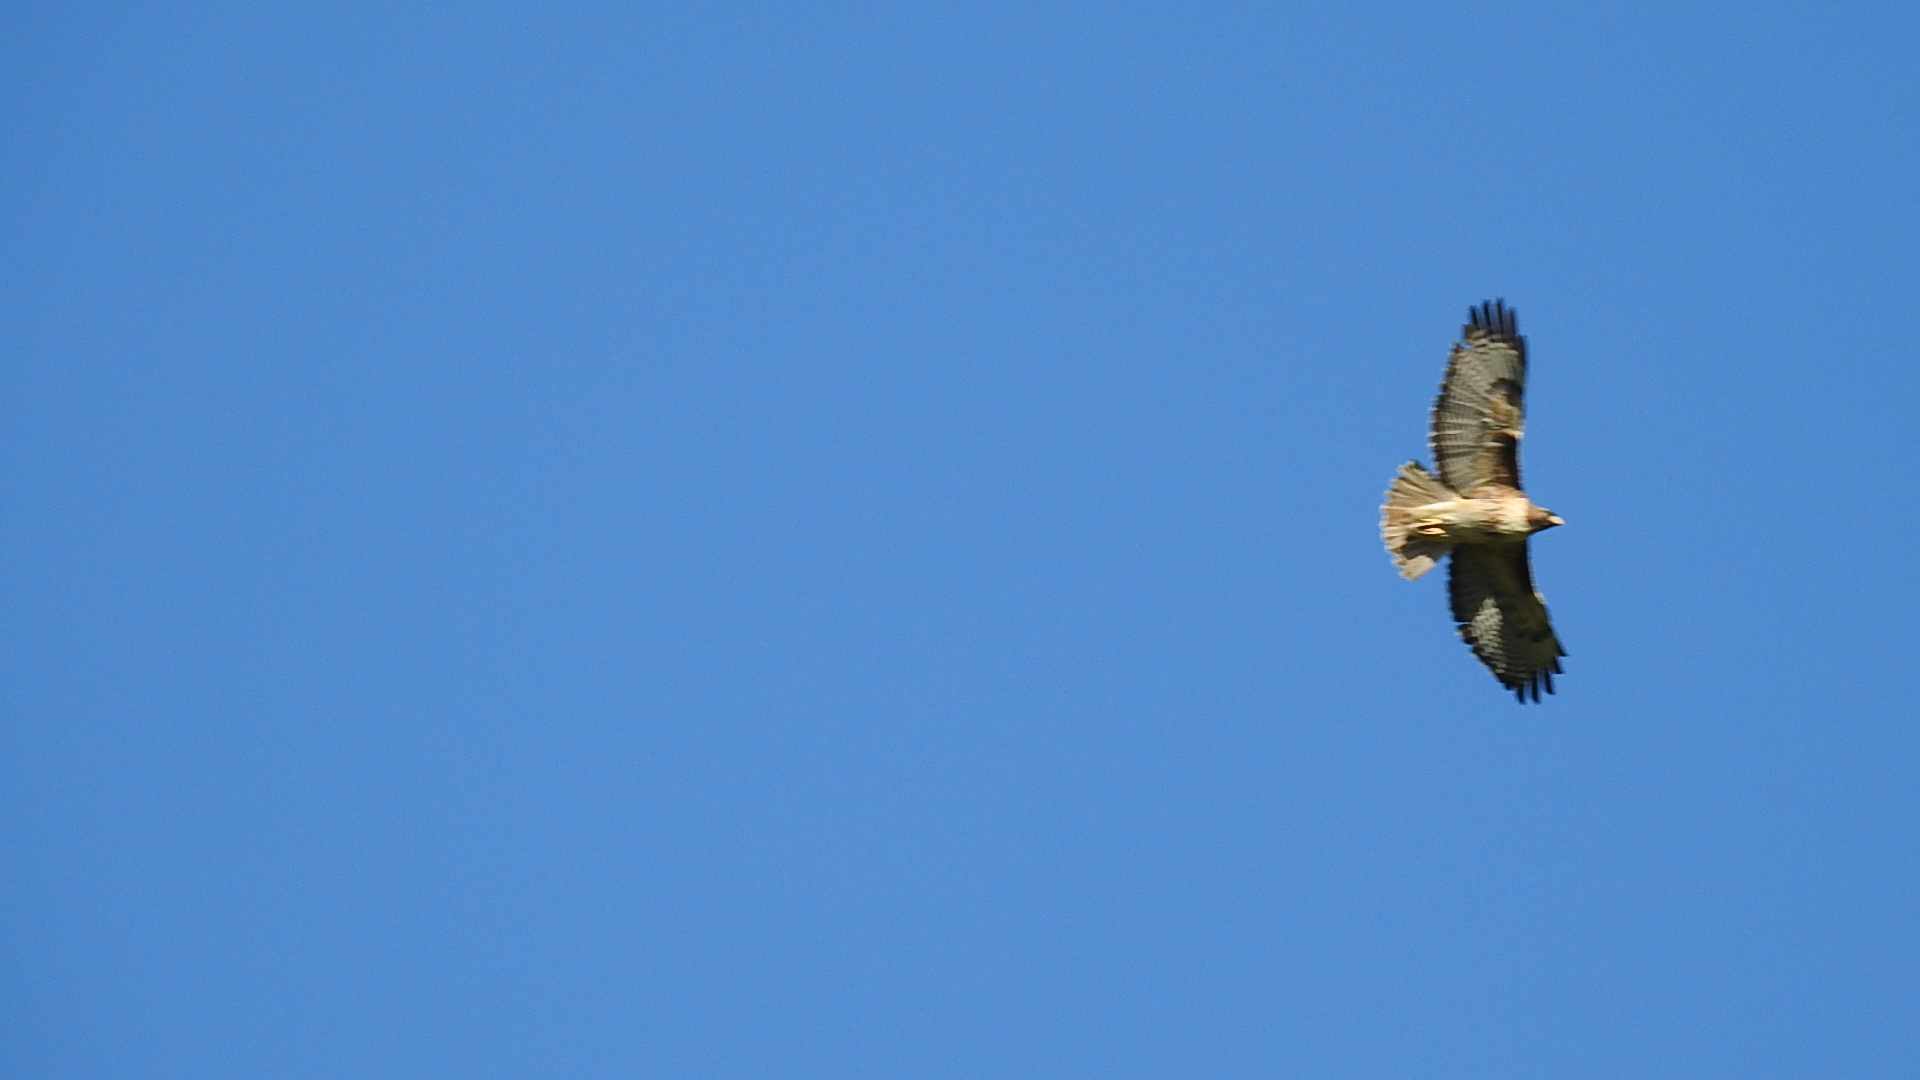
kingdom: Animalia
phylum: Chordata
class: Aves
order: Accipitriformes
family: Accipitridae
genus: Buteo
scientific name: Buteo jamaicensis
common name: Red-tailed hawk
